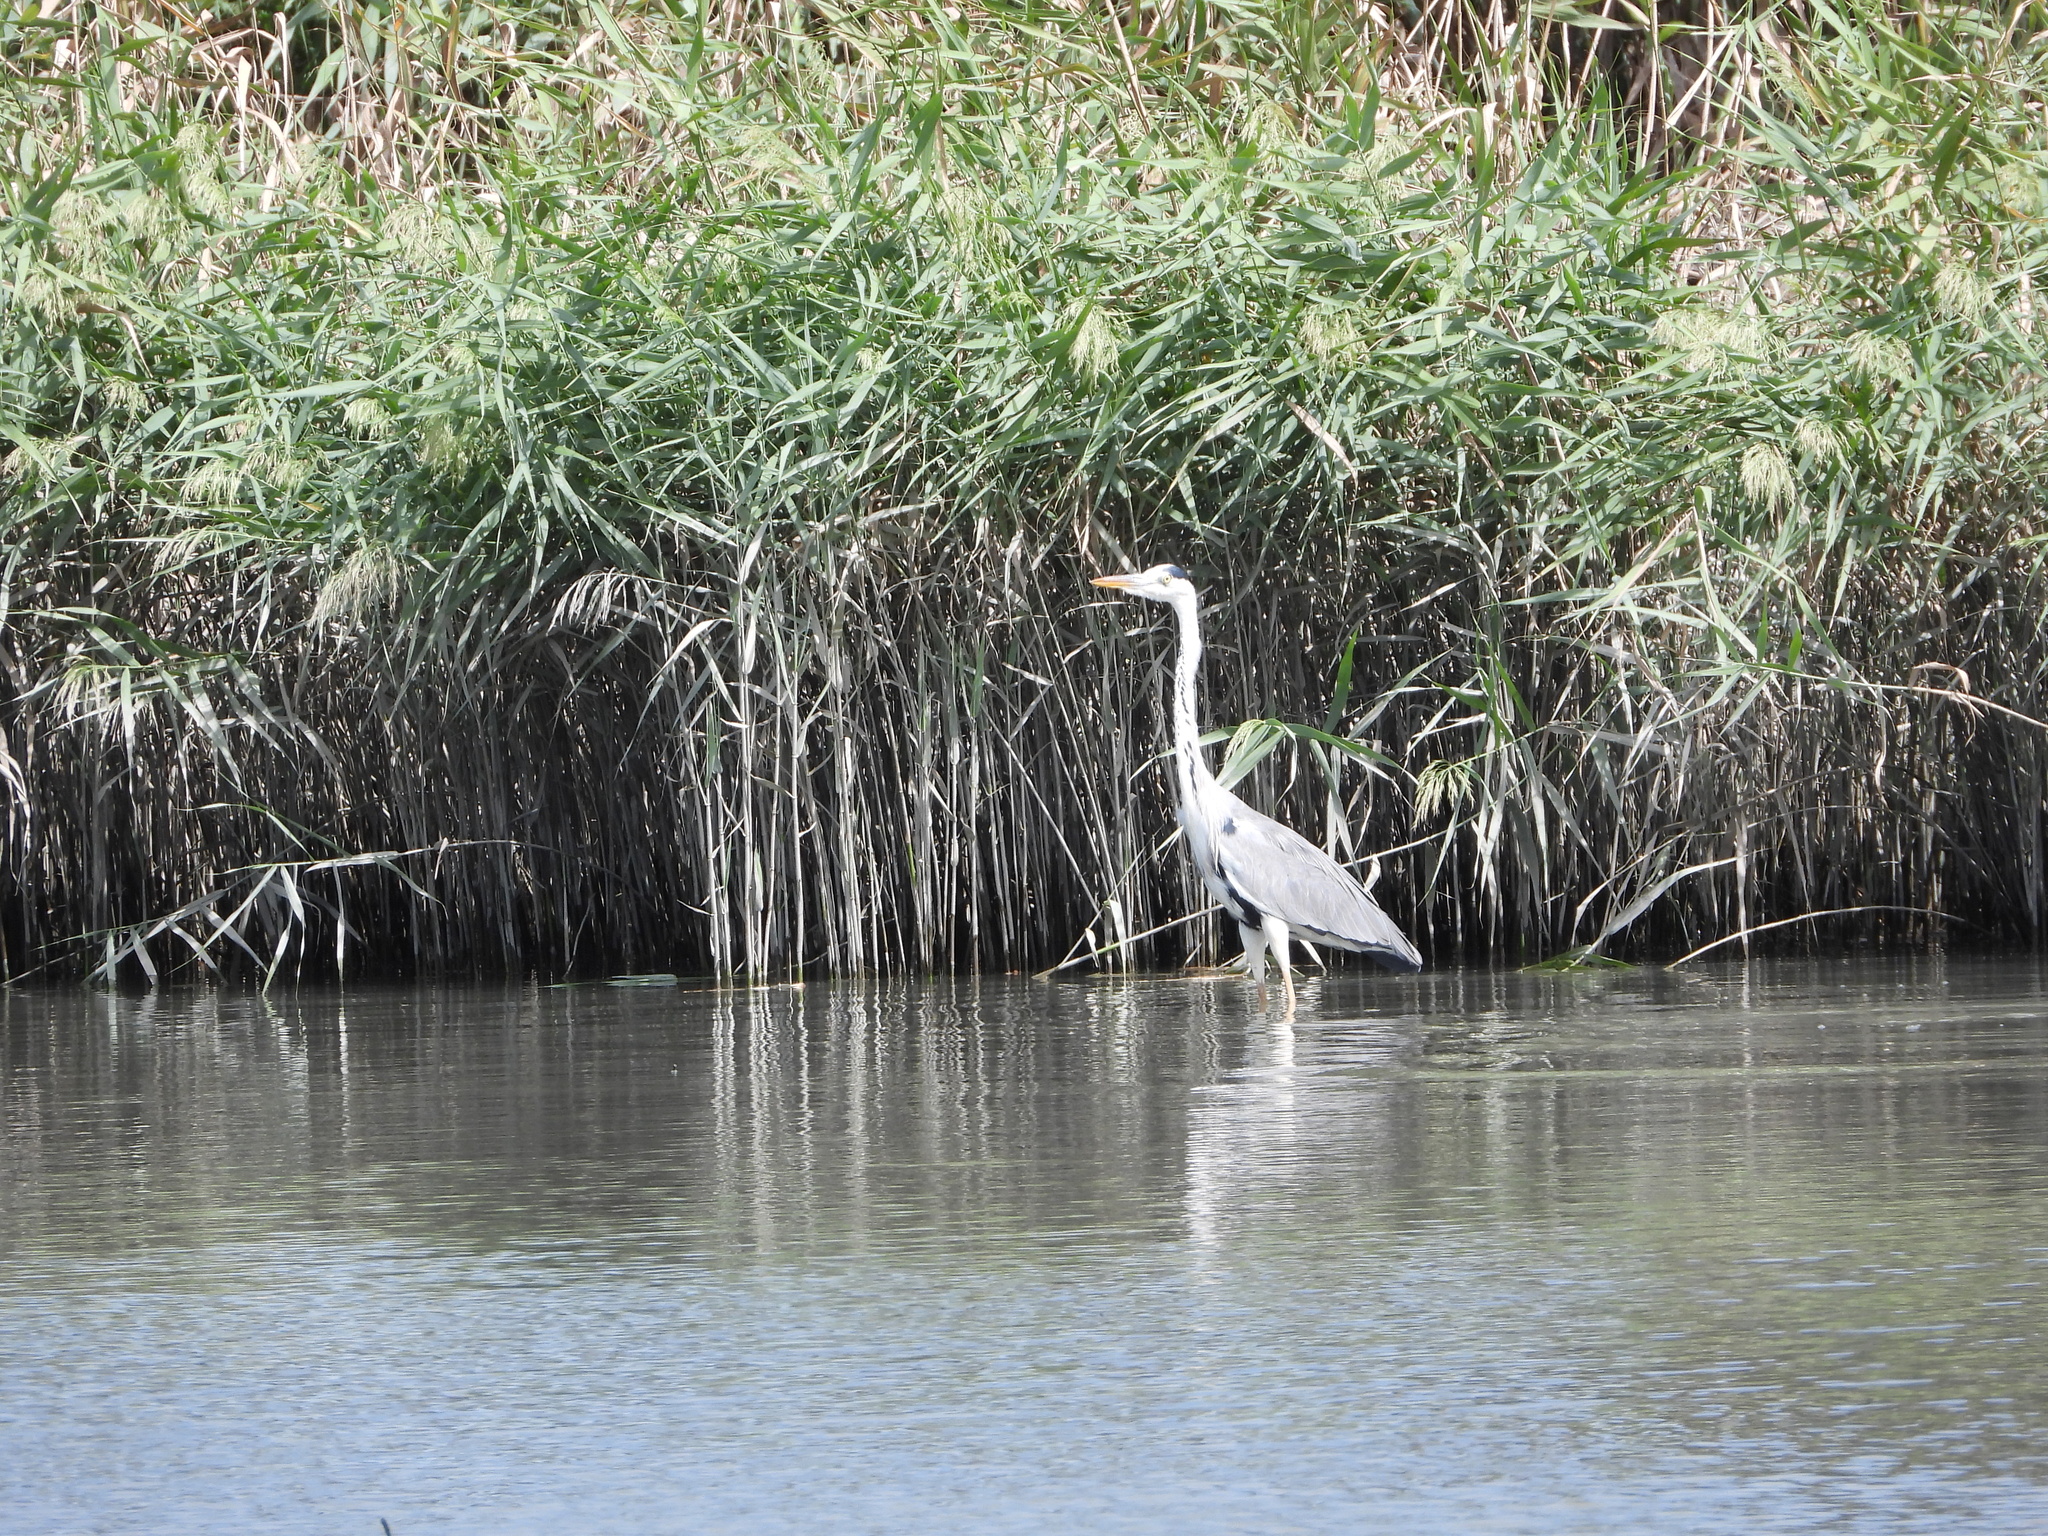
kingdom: Animalia
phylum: Chordata
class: Aves
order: Pelecaniformes
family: Ardeidae
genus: Ardea
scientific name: Ardea cinerea
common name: Grey heron
